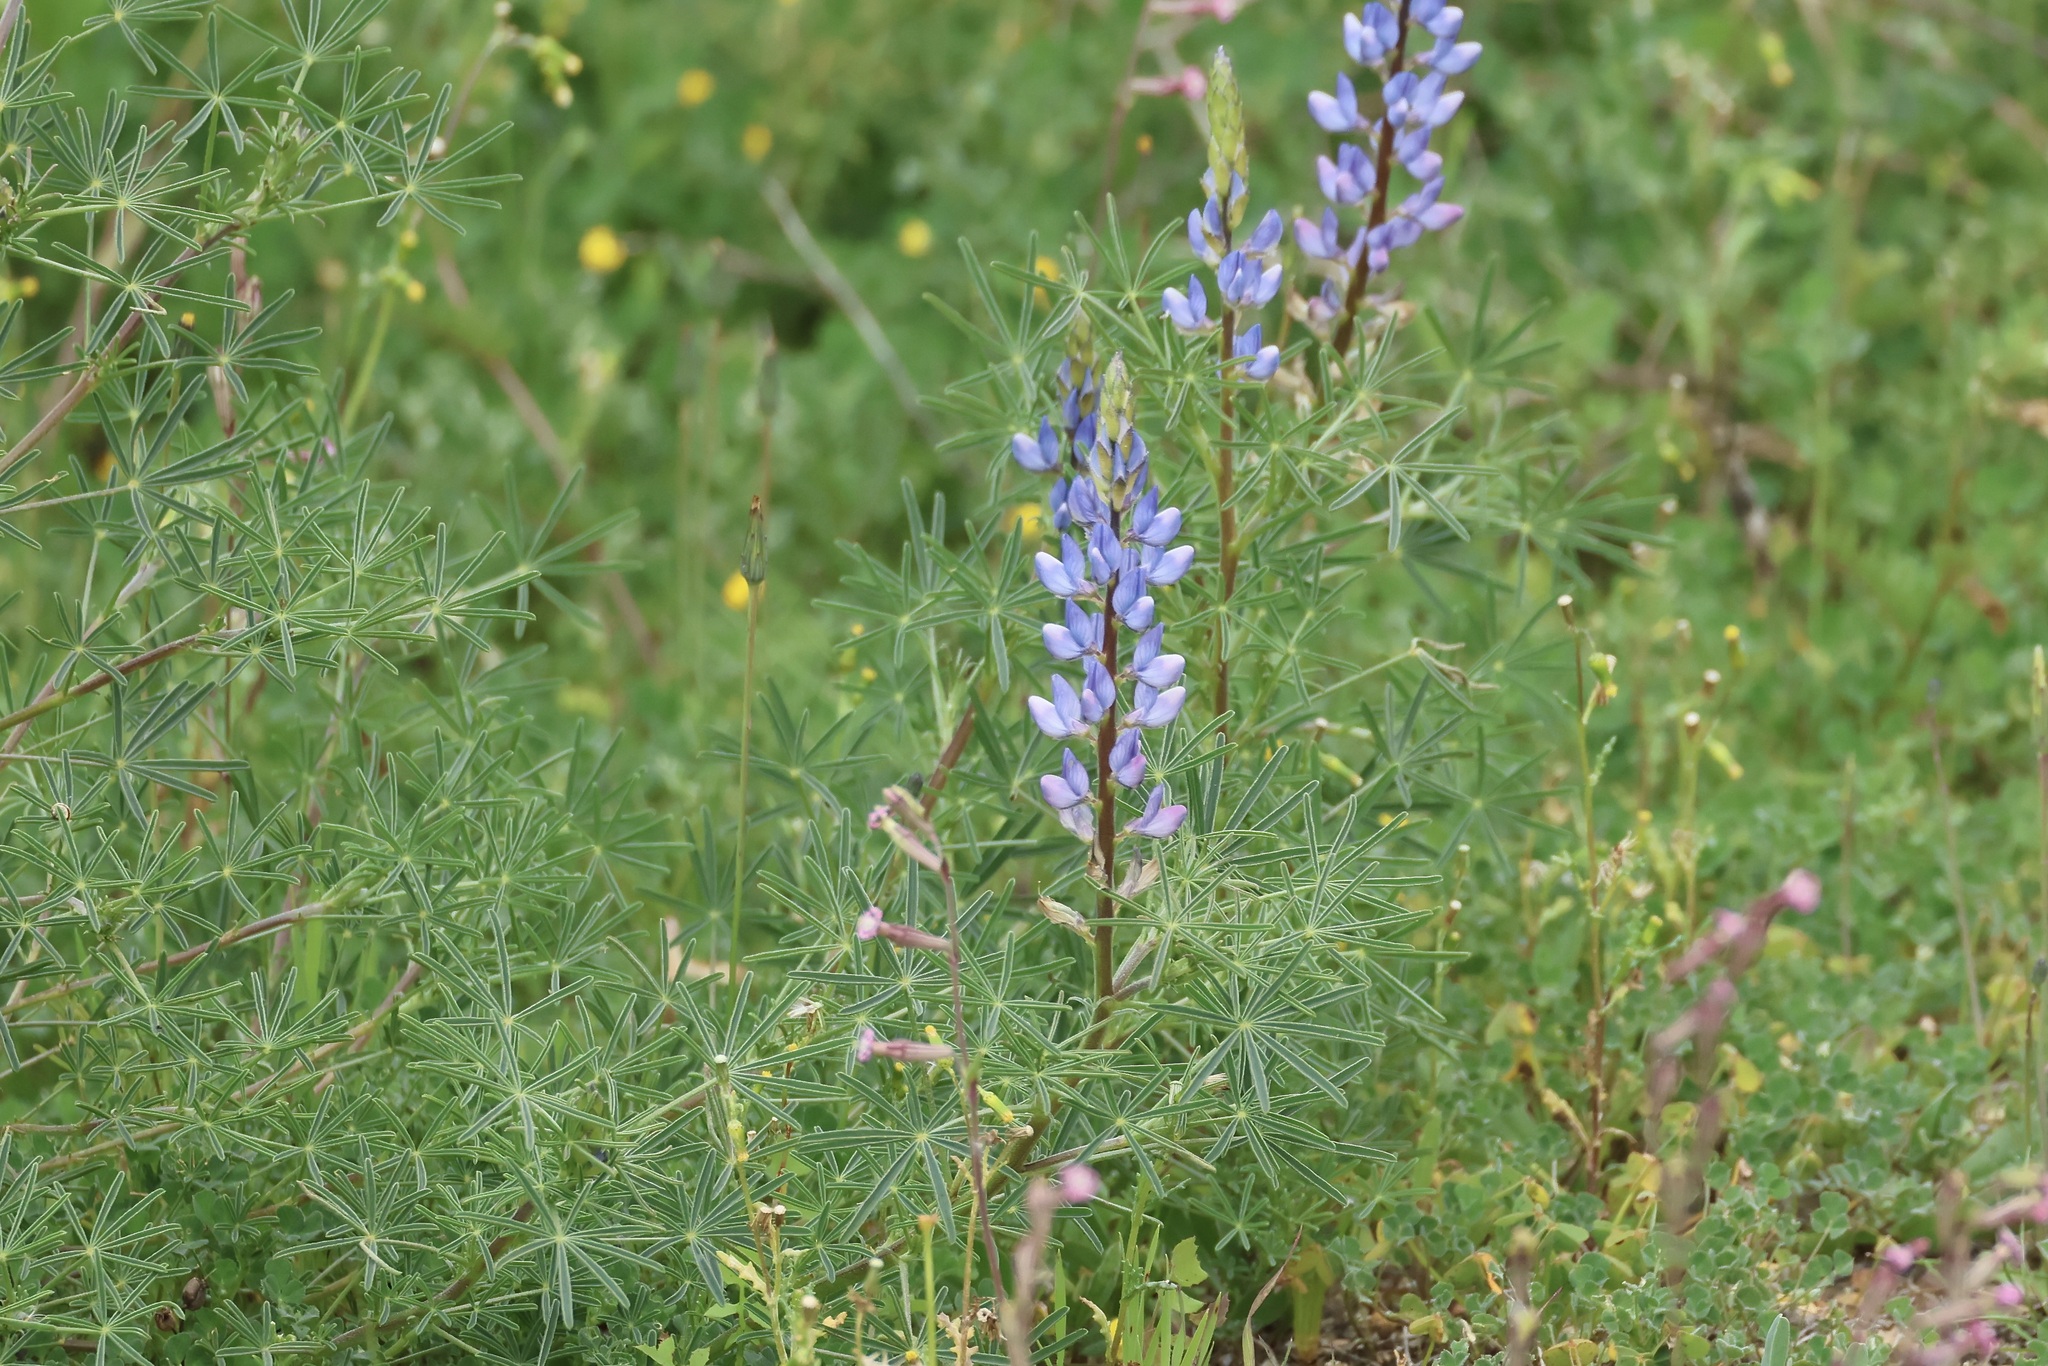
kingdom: Plantae
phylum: Tracheophyta
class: Magnoliopsida
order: Fabales
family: Fabaceae
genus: Lupinus
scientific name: Lupinus angustifolius
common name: Narrow-leaved lupin
